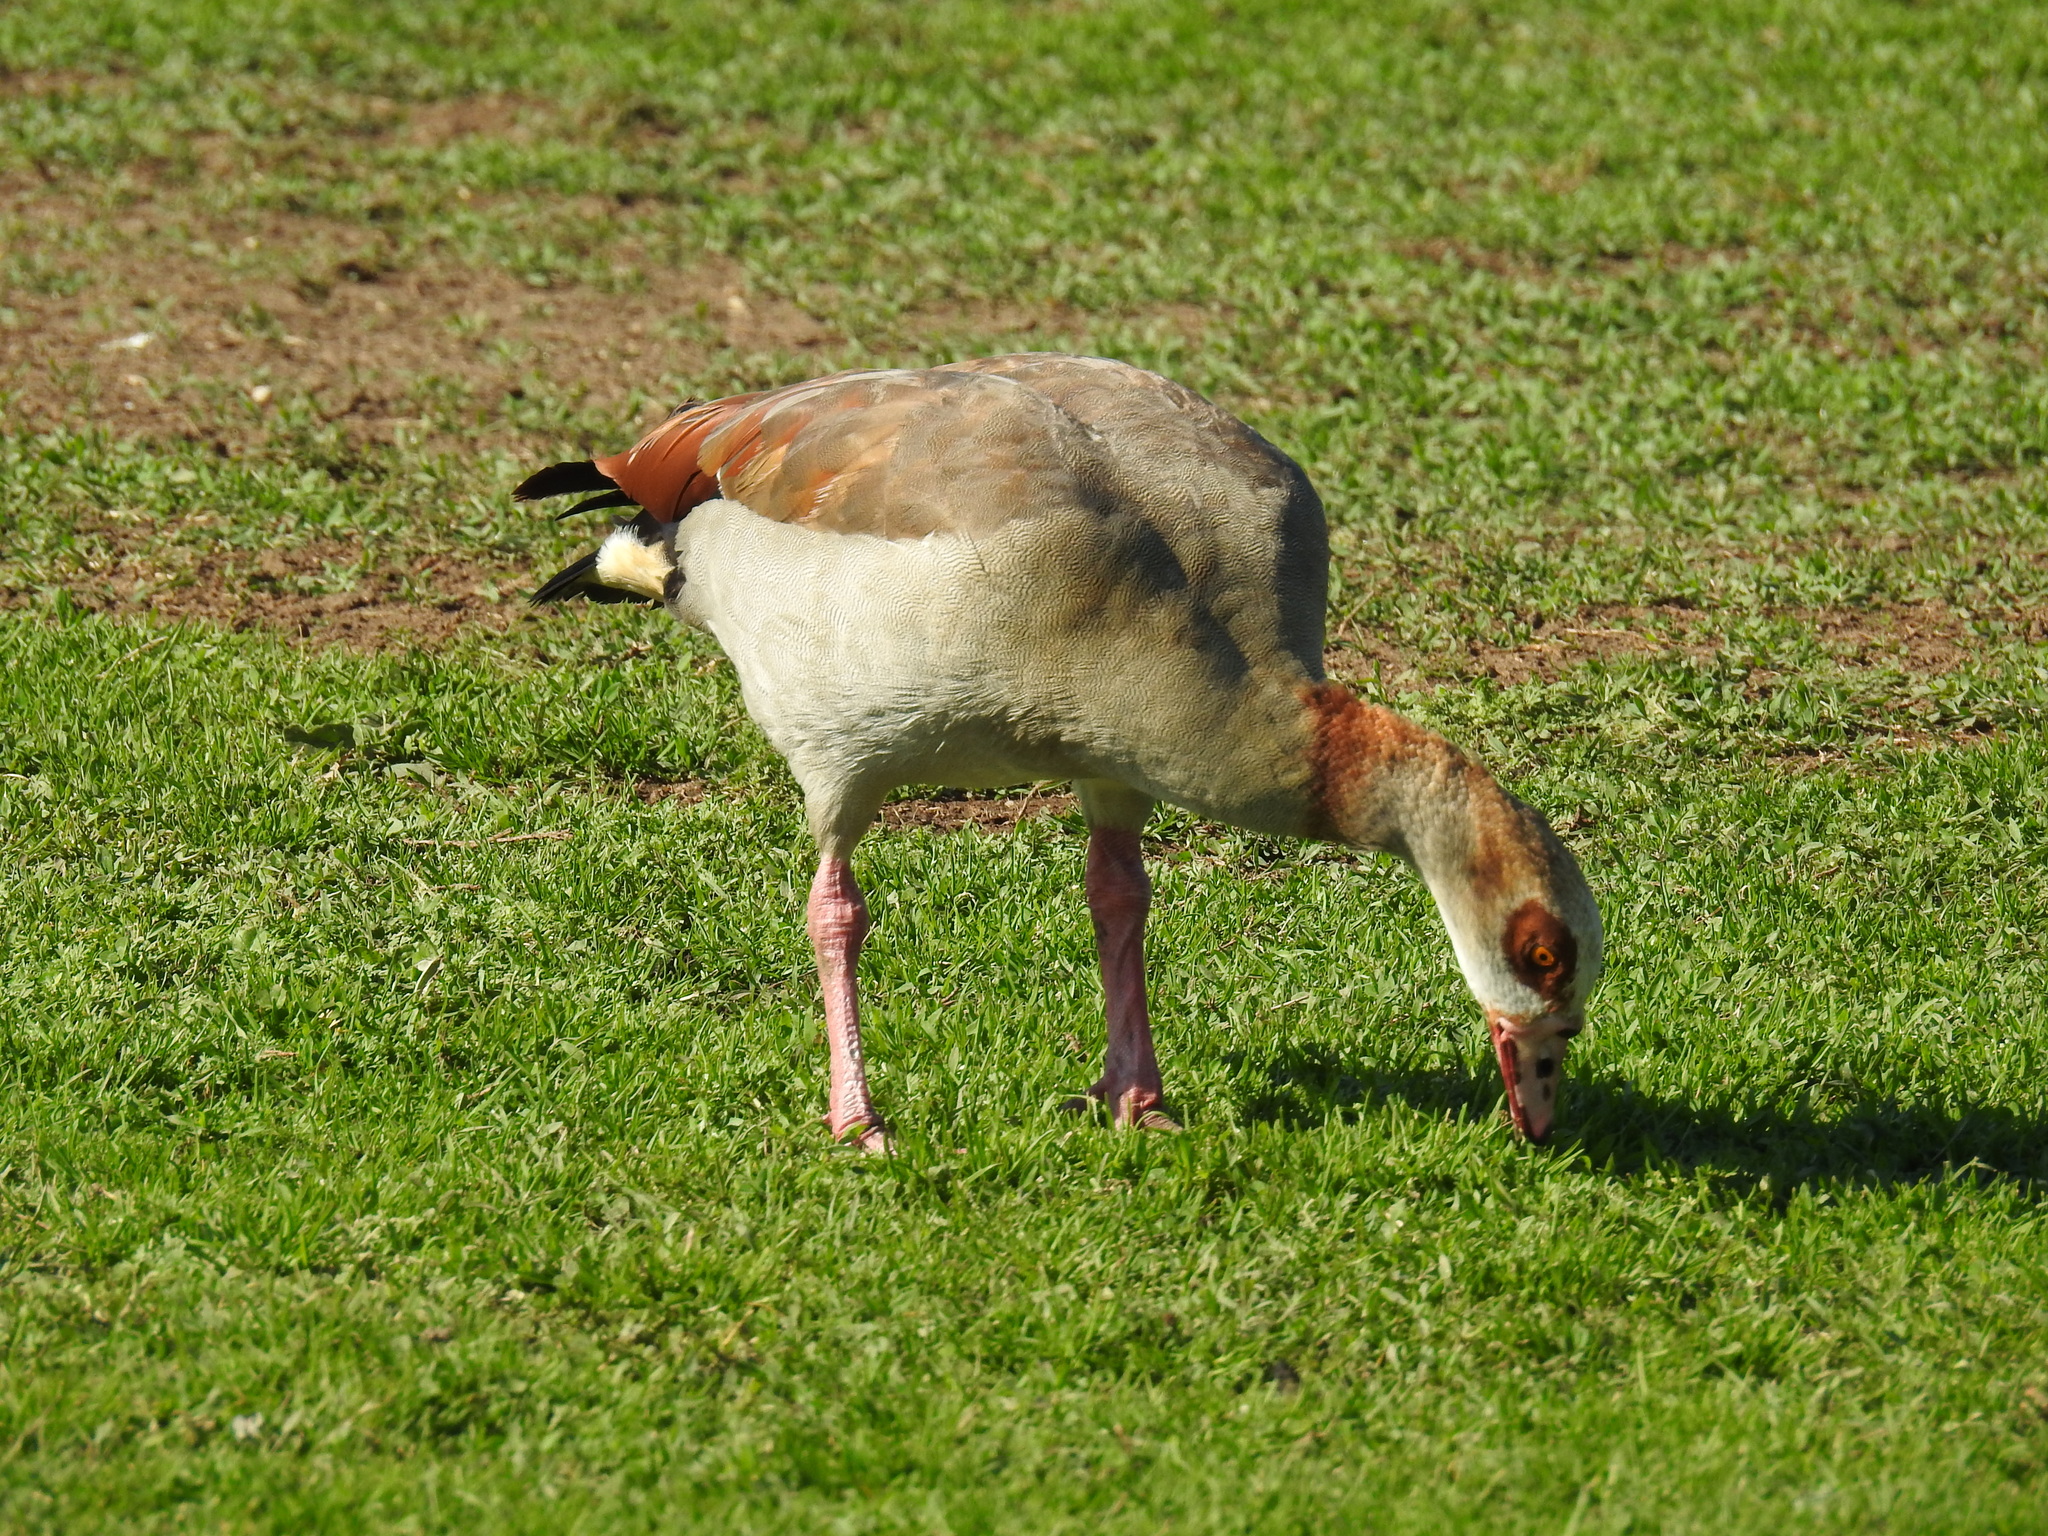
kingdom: Animalia
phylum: Chordata
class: Aves
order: Anseriformes
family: Anatidae
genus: Alopochen
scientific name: Alopochen aegyptiaca
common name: Egyptian goose
